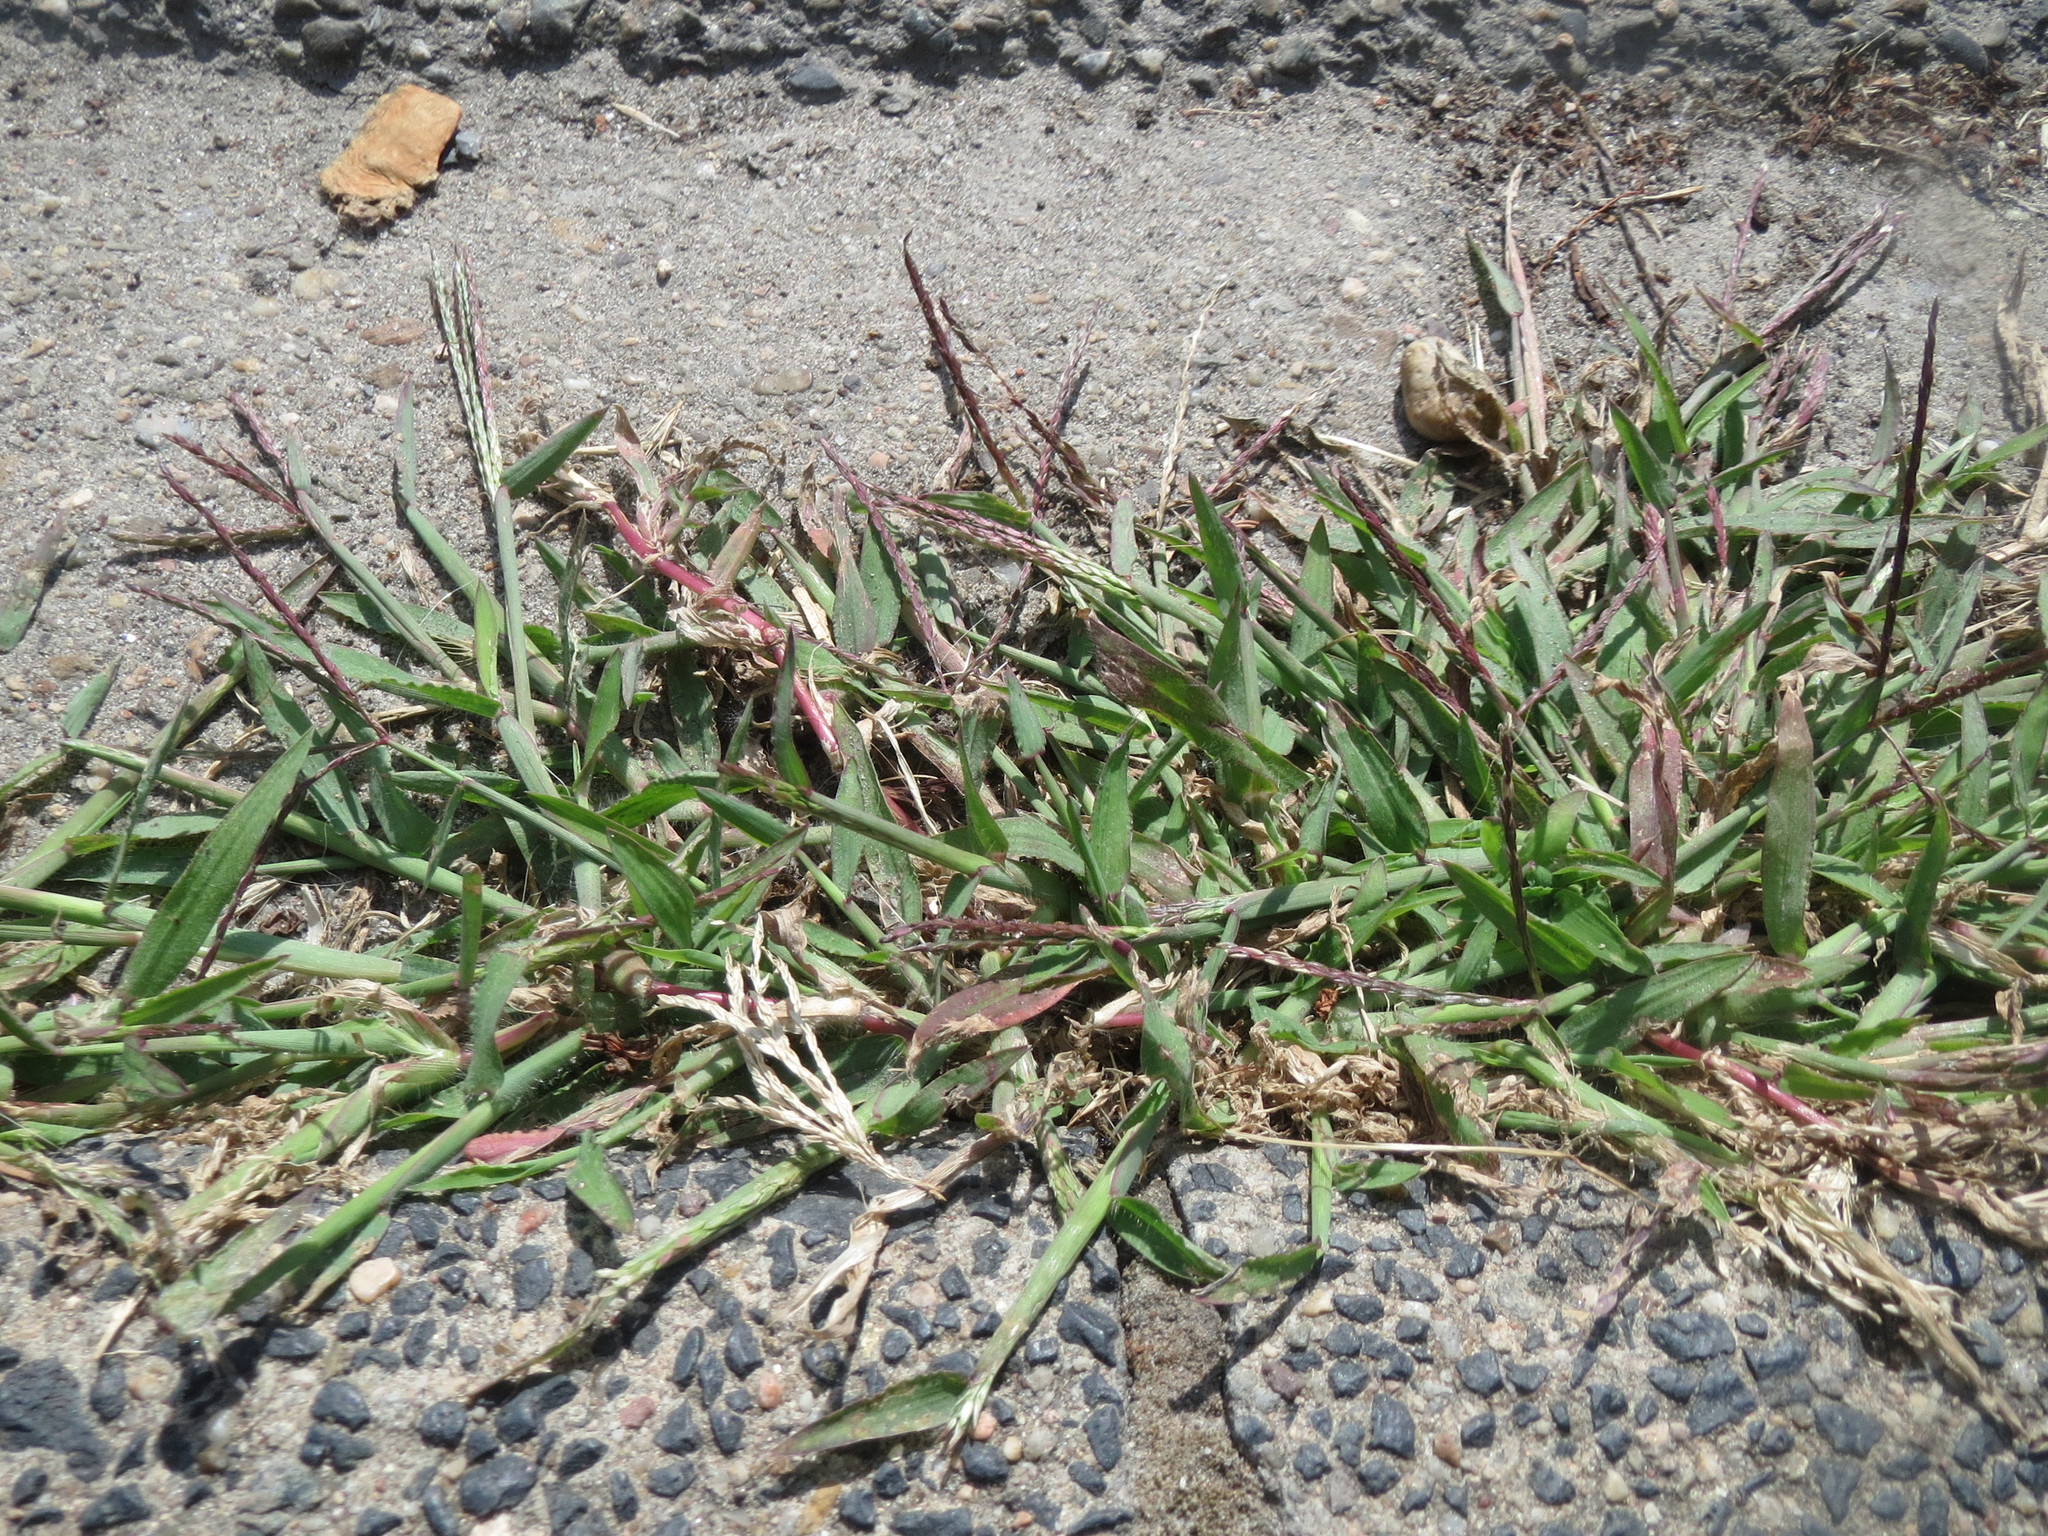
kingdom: Plantae
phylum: Tracheophyta
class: Liliopsida
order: Poales
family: Poaceae
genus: Digitaria
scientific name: Digitaria sanguinalis
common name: Hairy crabgrass
